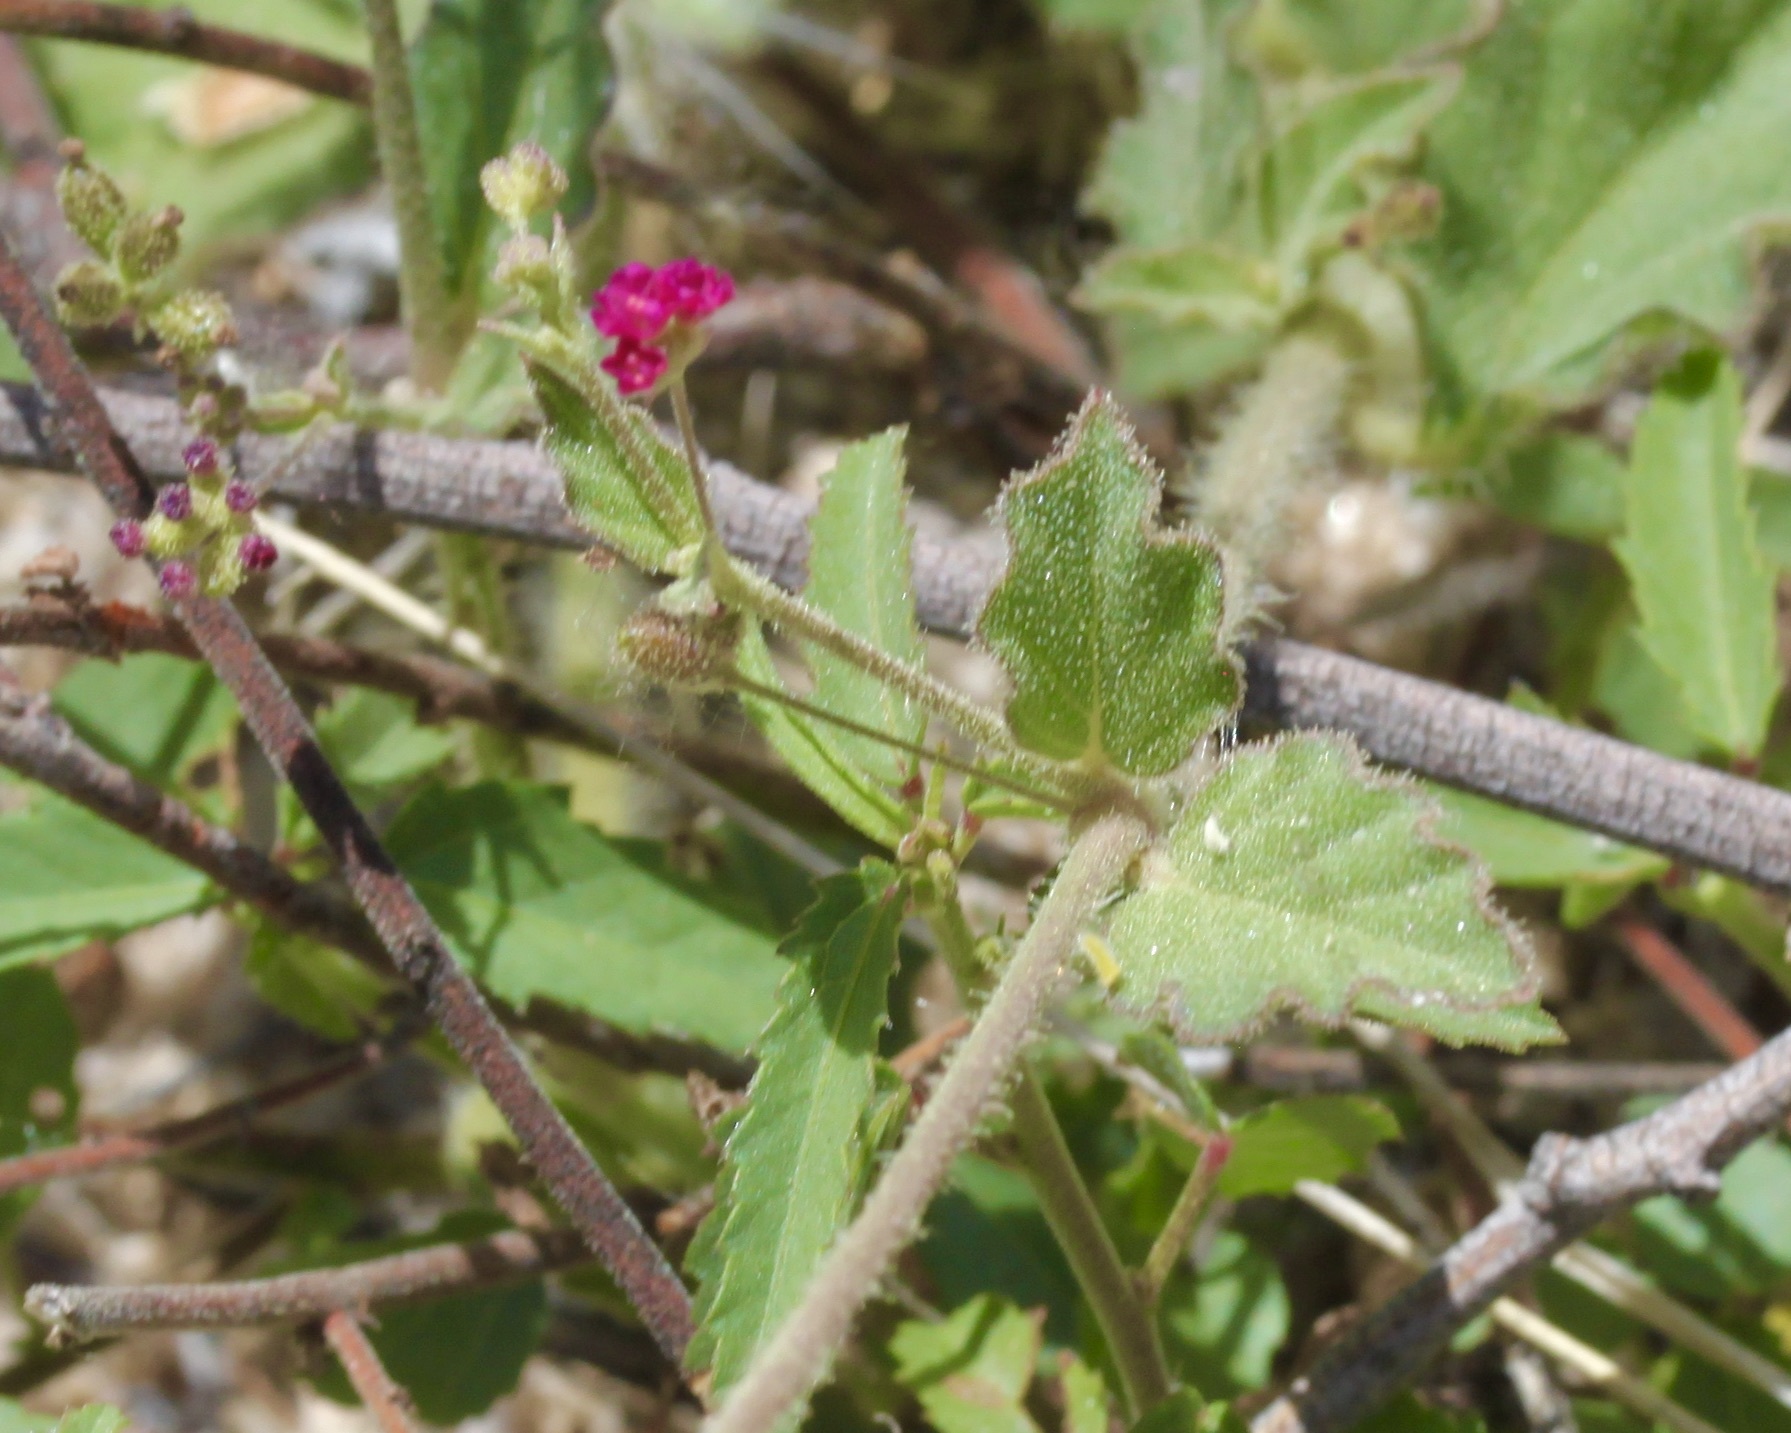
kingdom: Plantae
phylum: Tracheophyta
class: Magnoliopsida
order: Caryophyllales
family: Nyctaginaceae
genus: Boerhavia
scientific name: Boerhavia coccinea
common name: Scarlet spiderling
